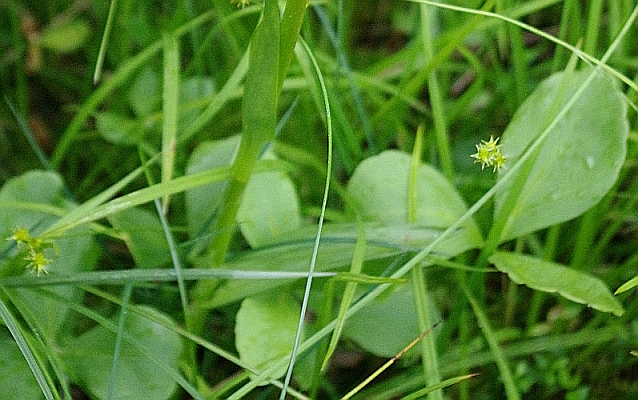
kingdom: Plantae
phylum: Tracheophyta
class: Magnoliopsida
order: Asterales
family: Menyanthaceae
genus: Menyanthes
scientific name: Menyanthes trifoliata
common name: Bogbean
